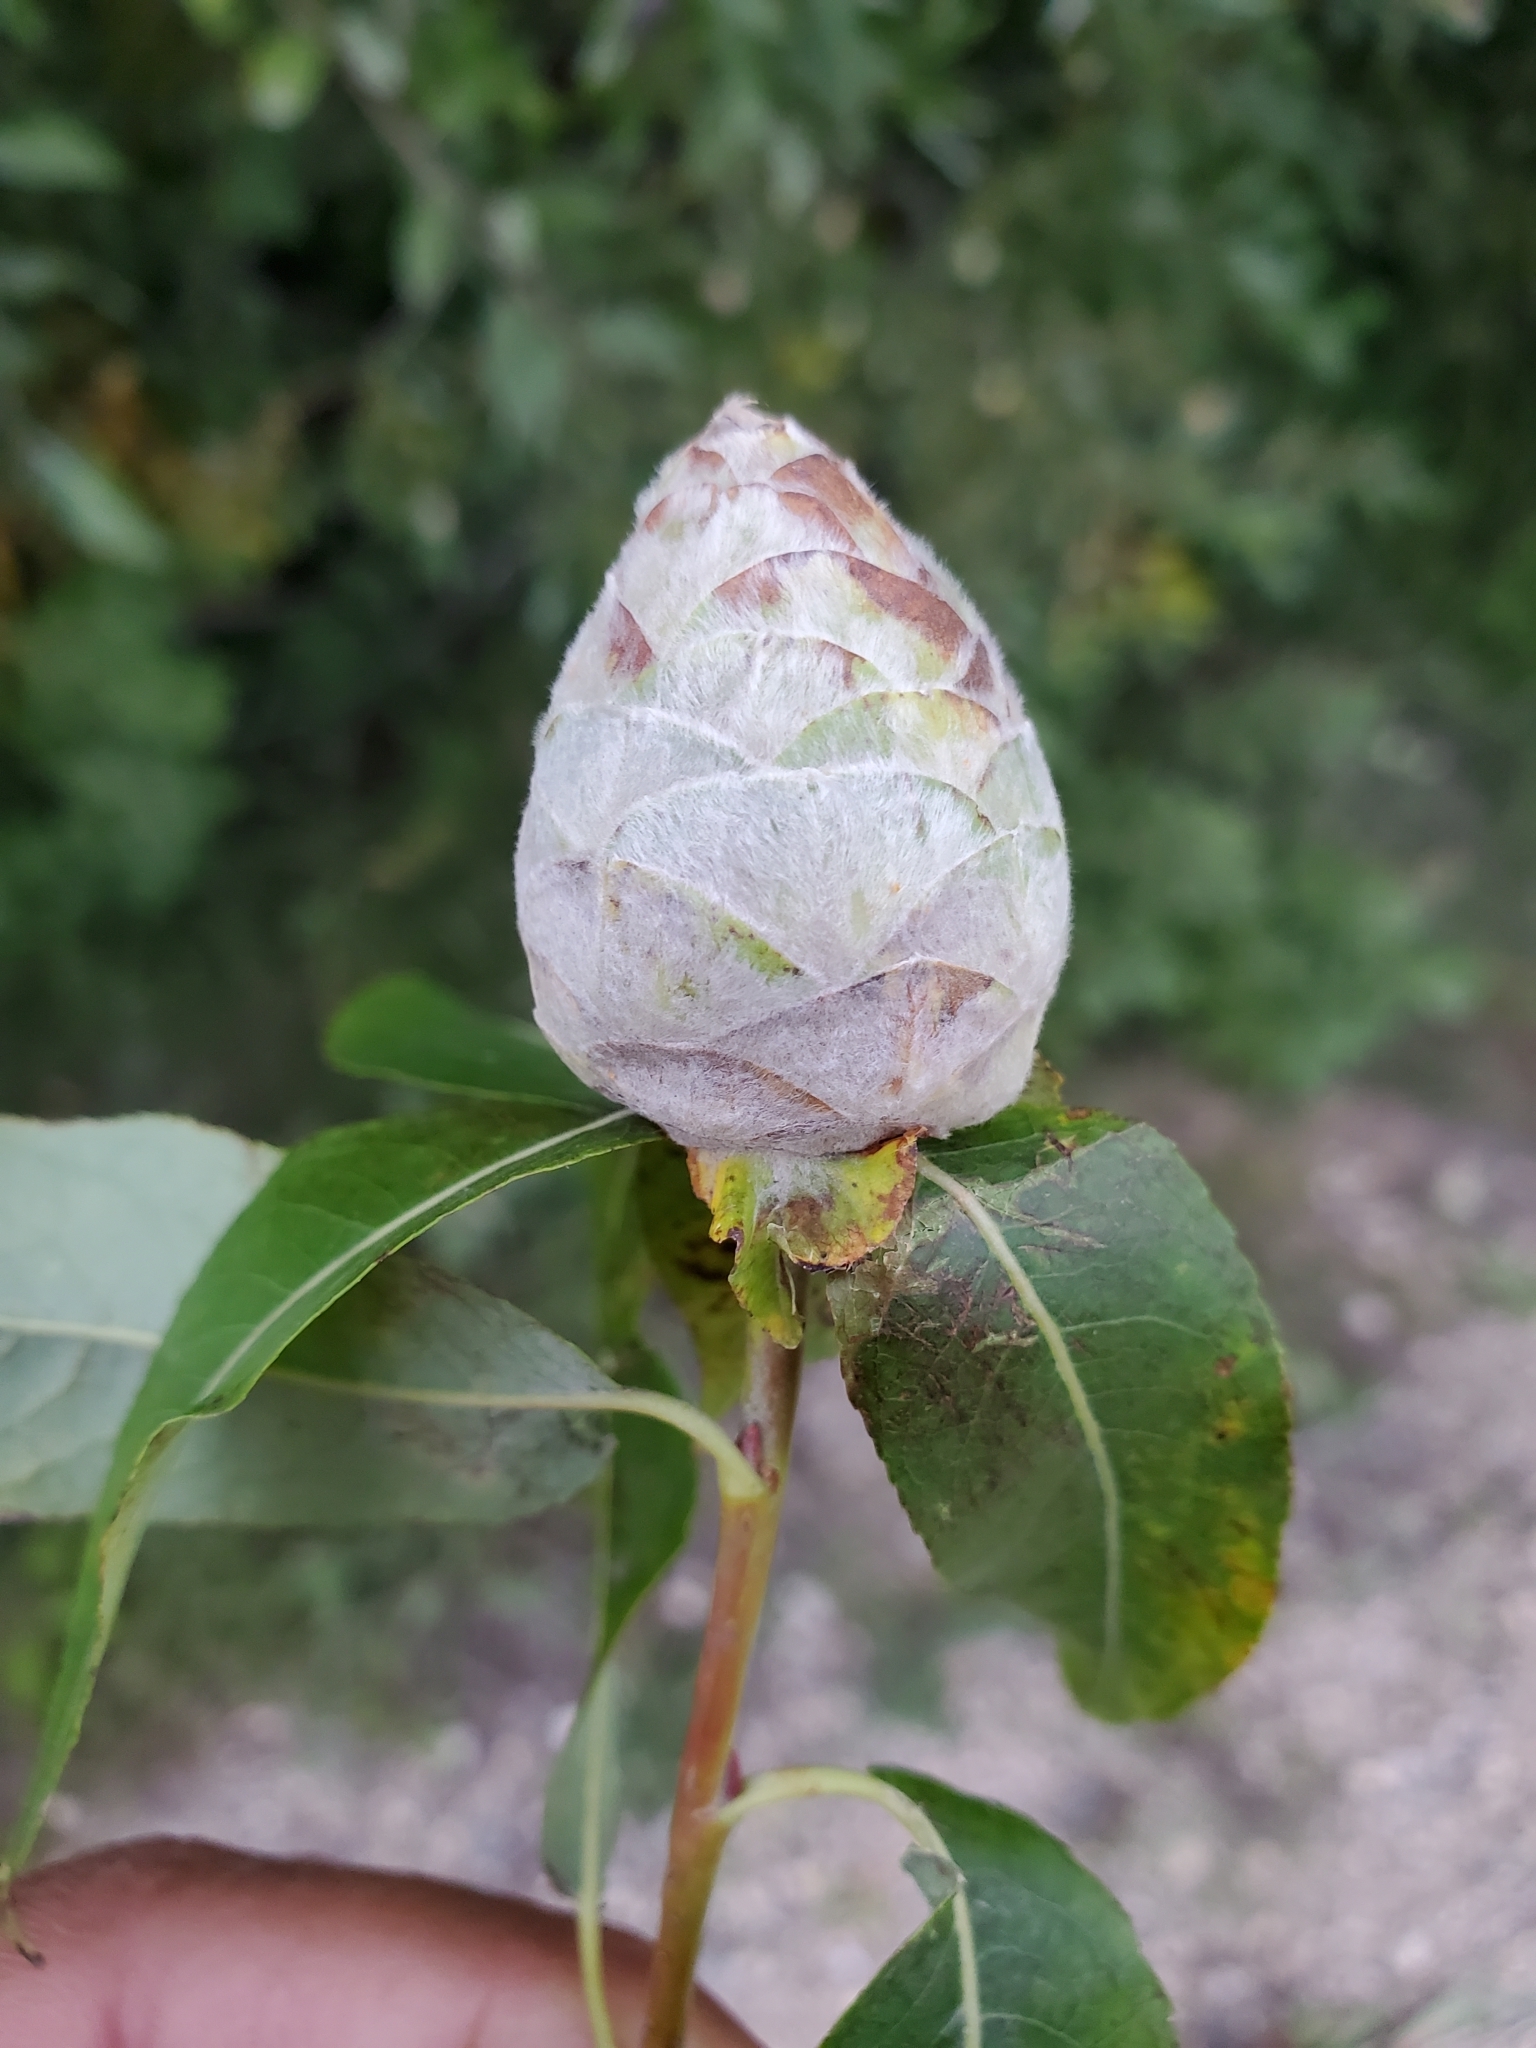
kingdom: Animalia
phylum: Arthropoda
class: Insecta
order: Diptera
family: Cecidomyiidae
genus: Rabdophaga
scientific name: Rabdophaga strobiloides
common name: Willow pinecone gall midge
